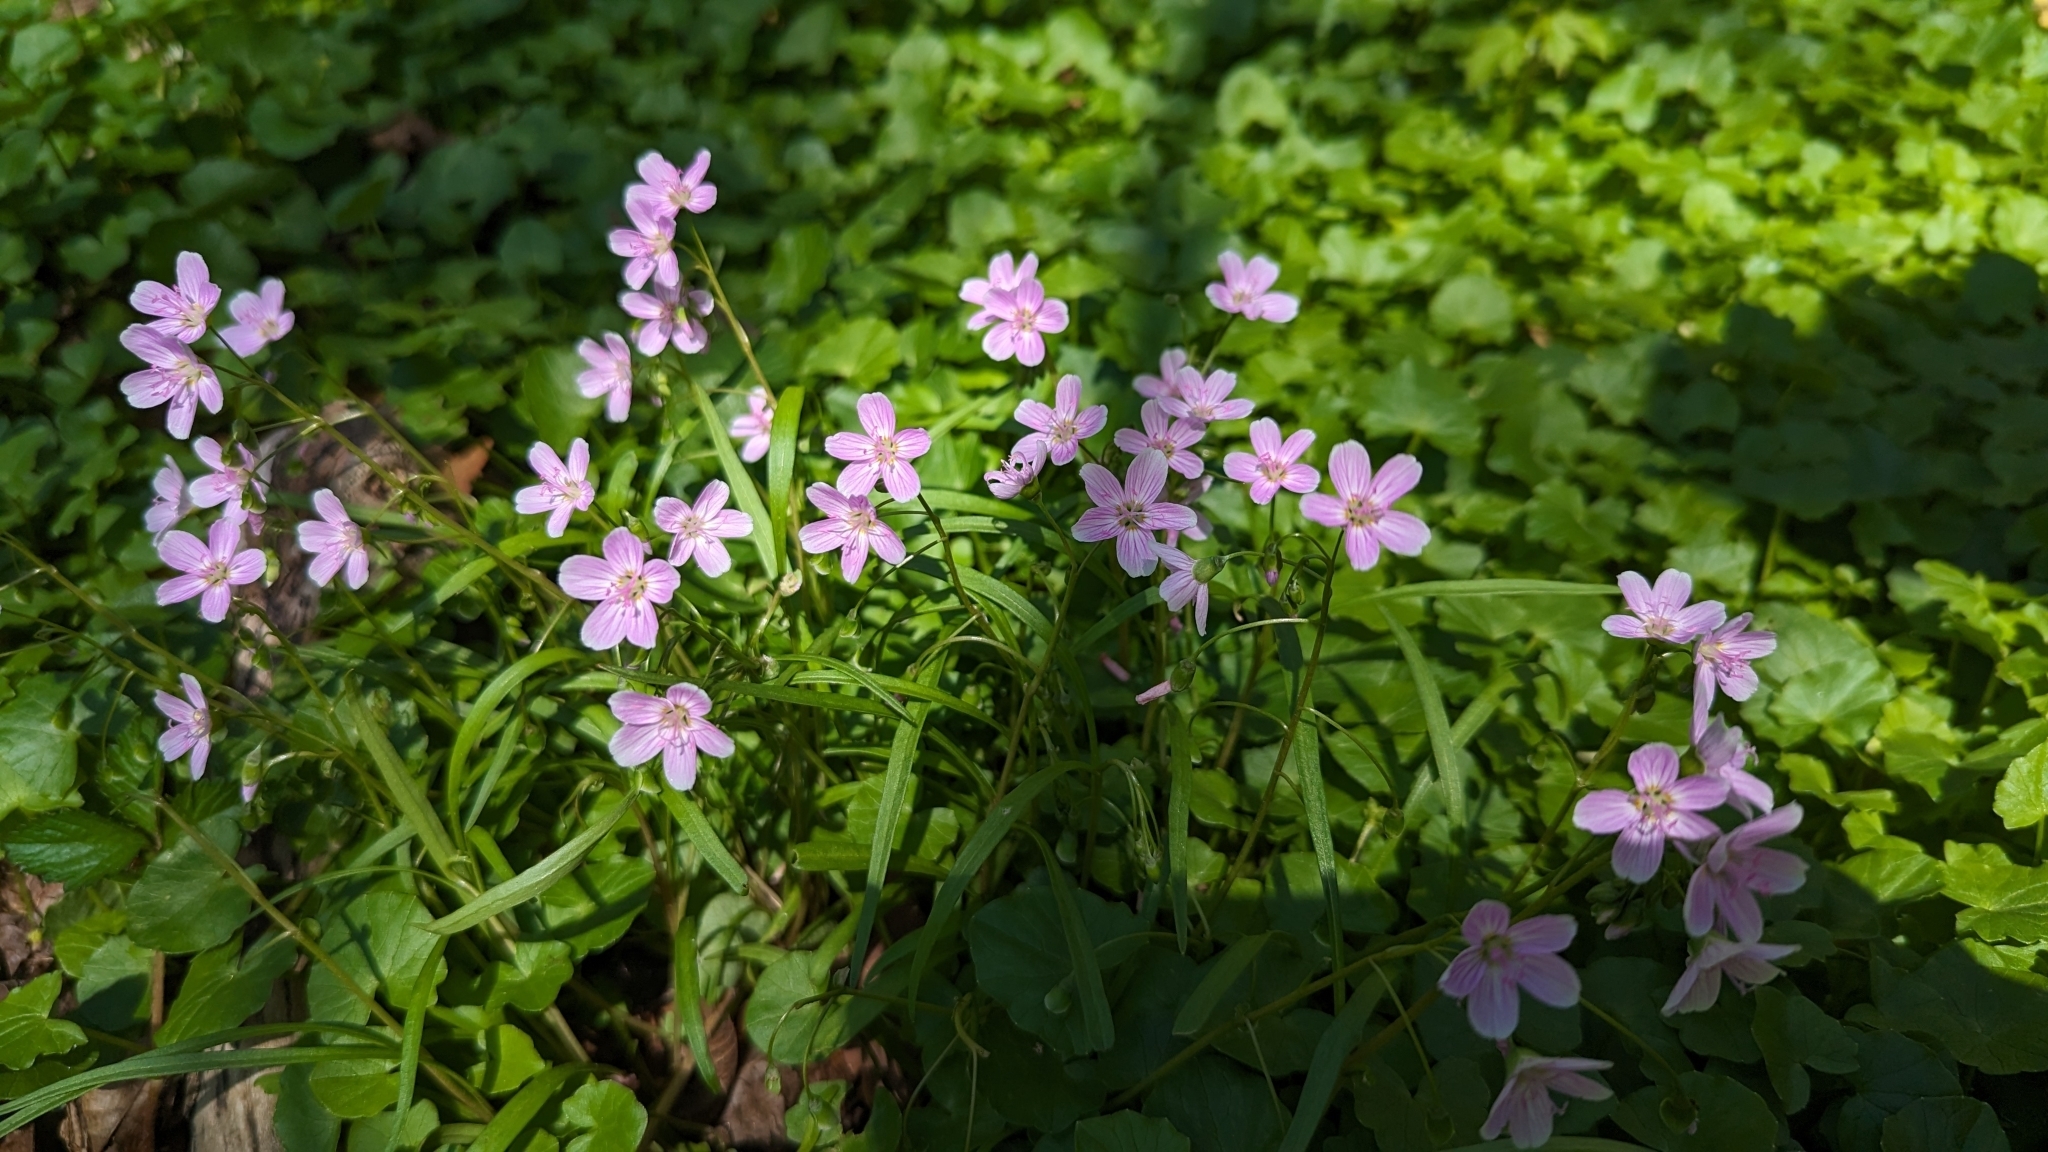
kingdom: Plantae
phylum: Tracheophyta
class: Magnoliopsida
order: Caryophyllales
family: Montiaceae
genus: Claytonia
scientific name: Claytonia virginica
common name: Virginia springbeauty
